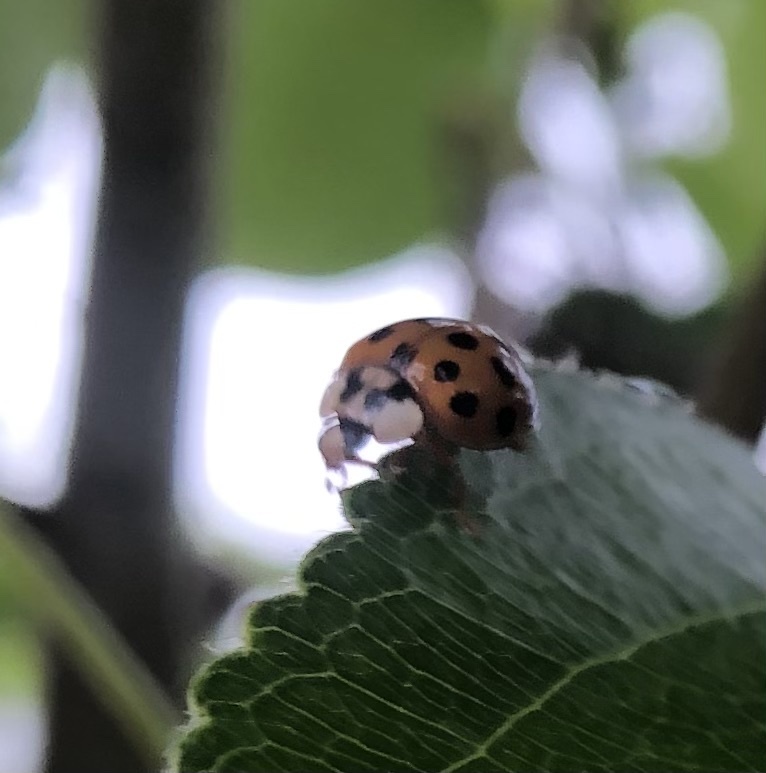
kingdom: Animalia
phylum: Arthropoda
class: Insecta
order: Coleoptera
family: Coccinellidae
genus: Harmonia
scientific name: Harmonia axyridis
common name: Harlequin ladybird
